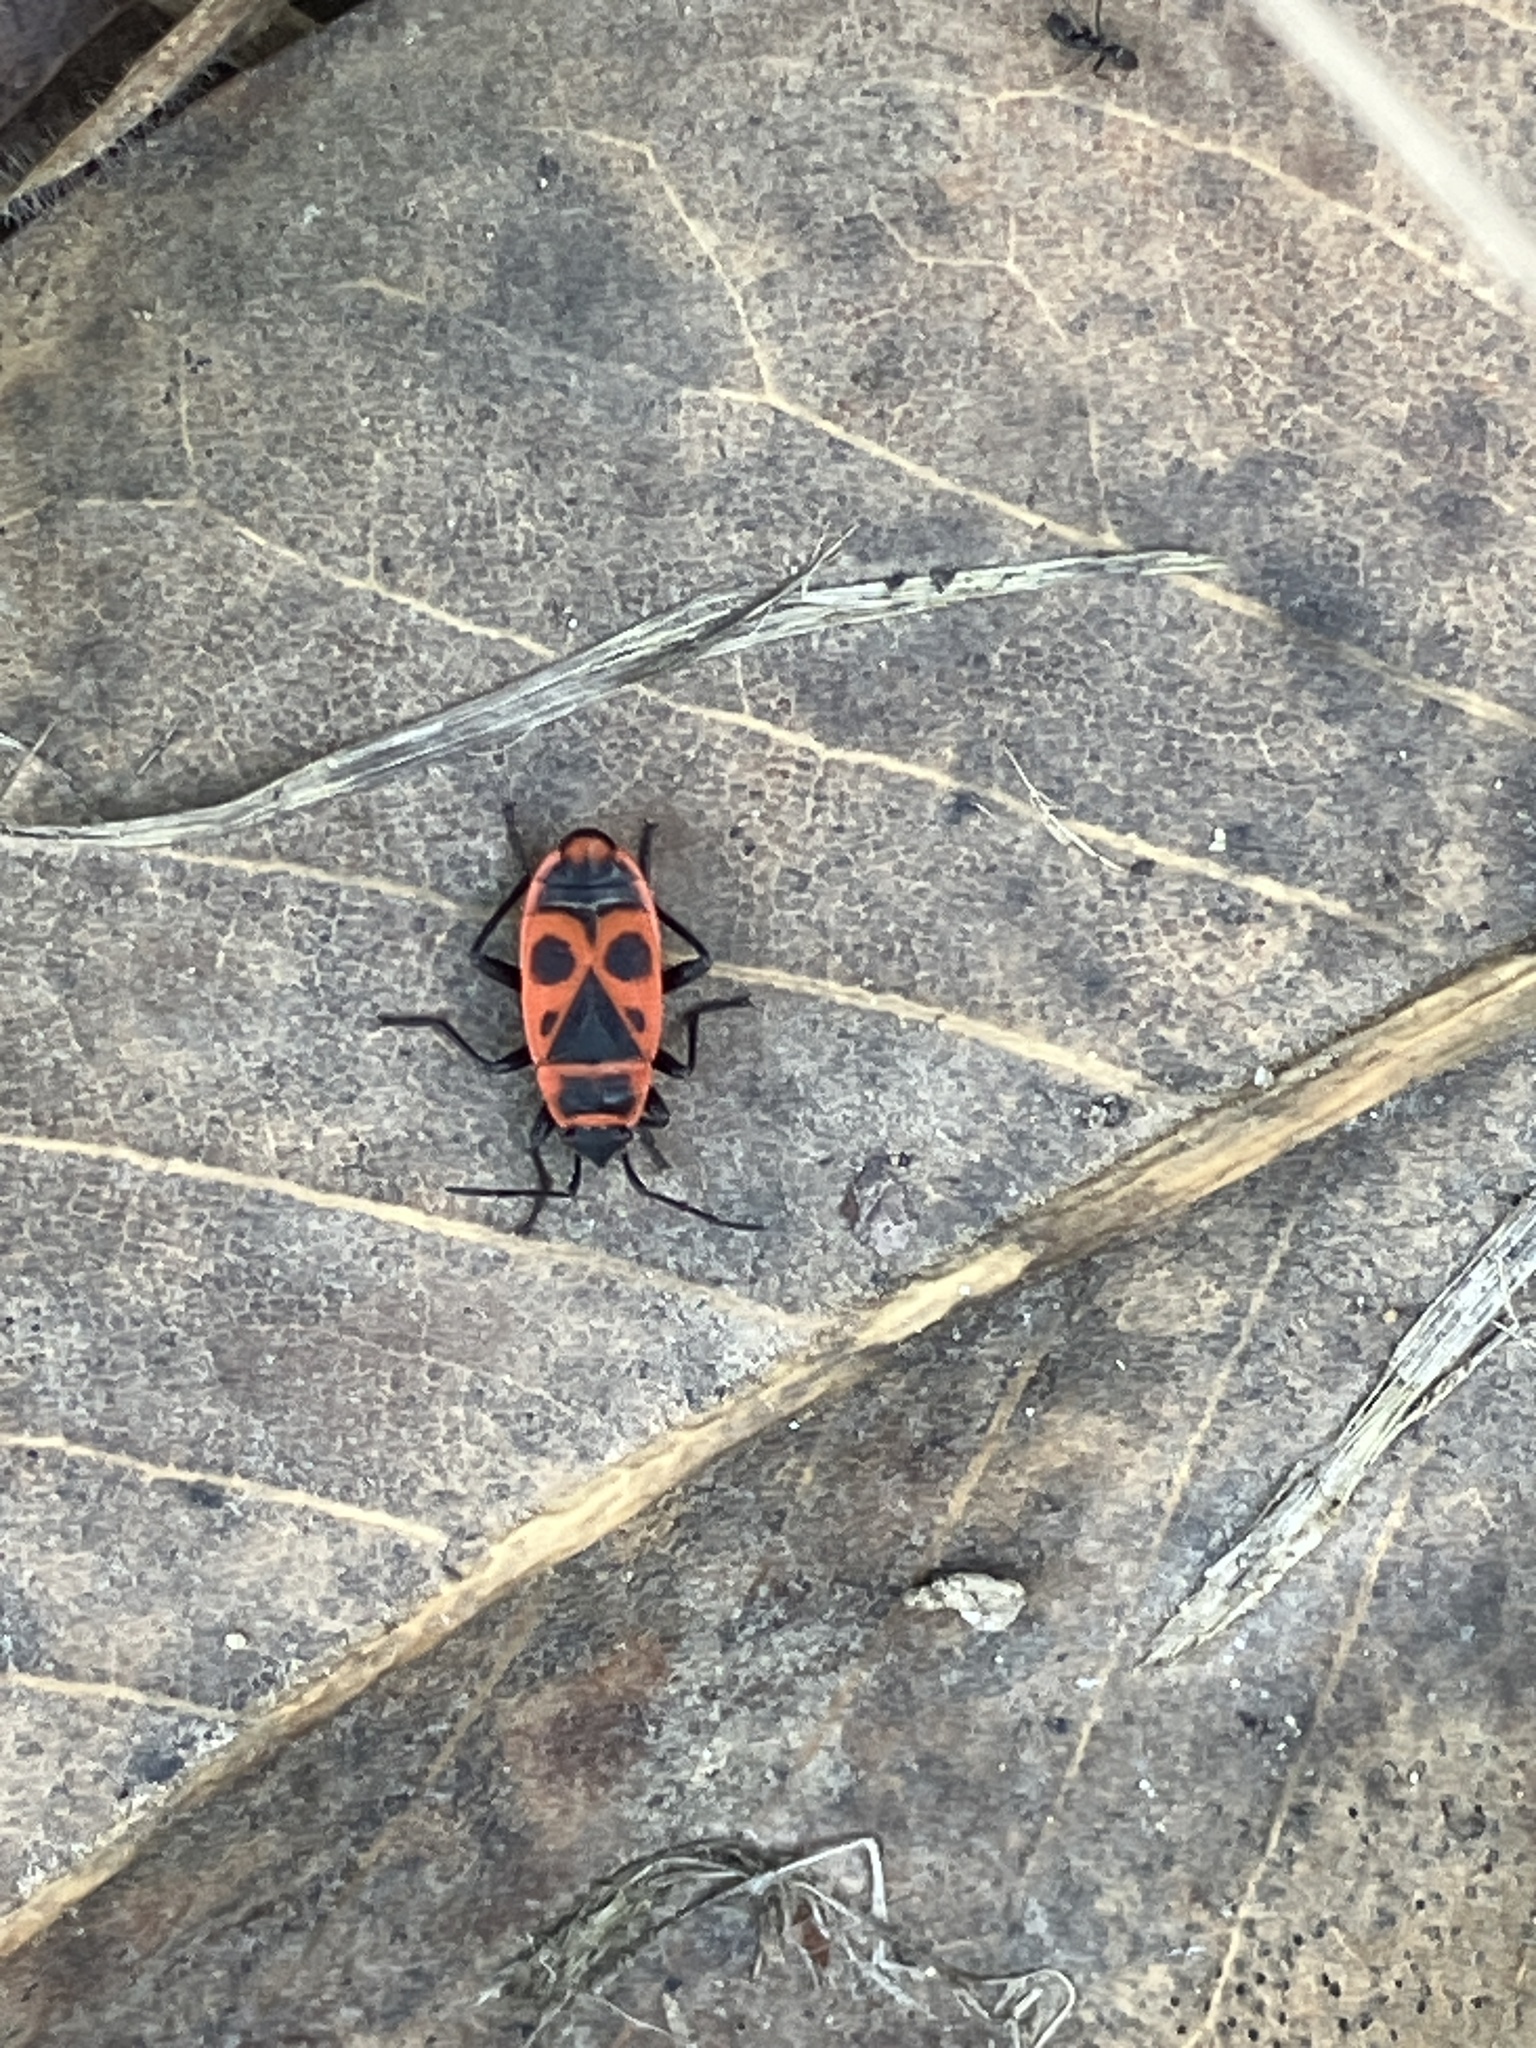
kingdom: Animalia
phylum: Arthropoda
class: Insecta
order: Hemiptera
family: Pyrrhocoridae
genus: Pyrrhocoris
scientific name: Pyrrhocoris apterus
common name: Firebug
